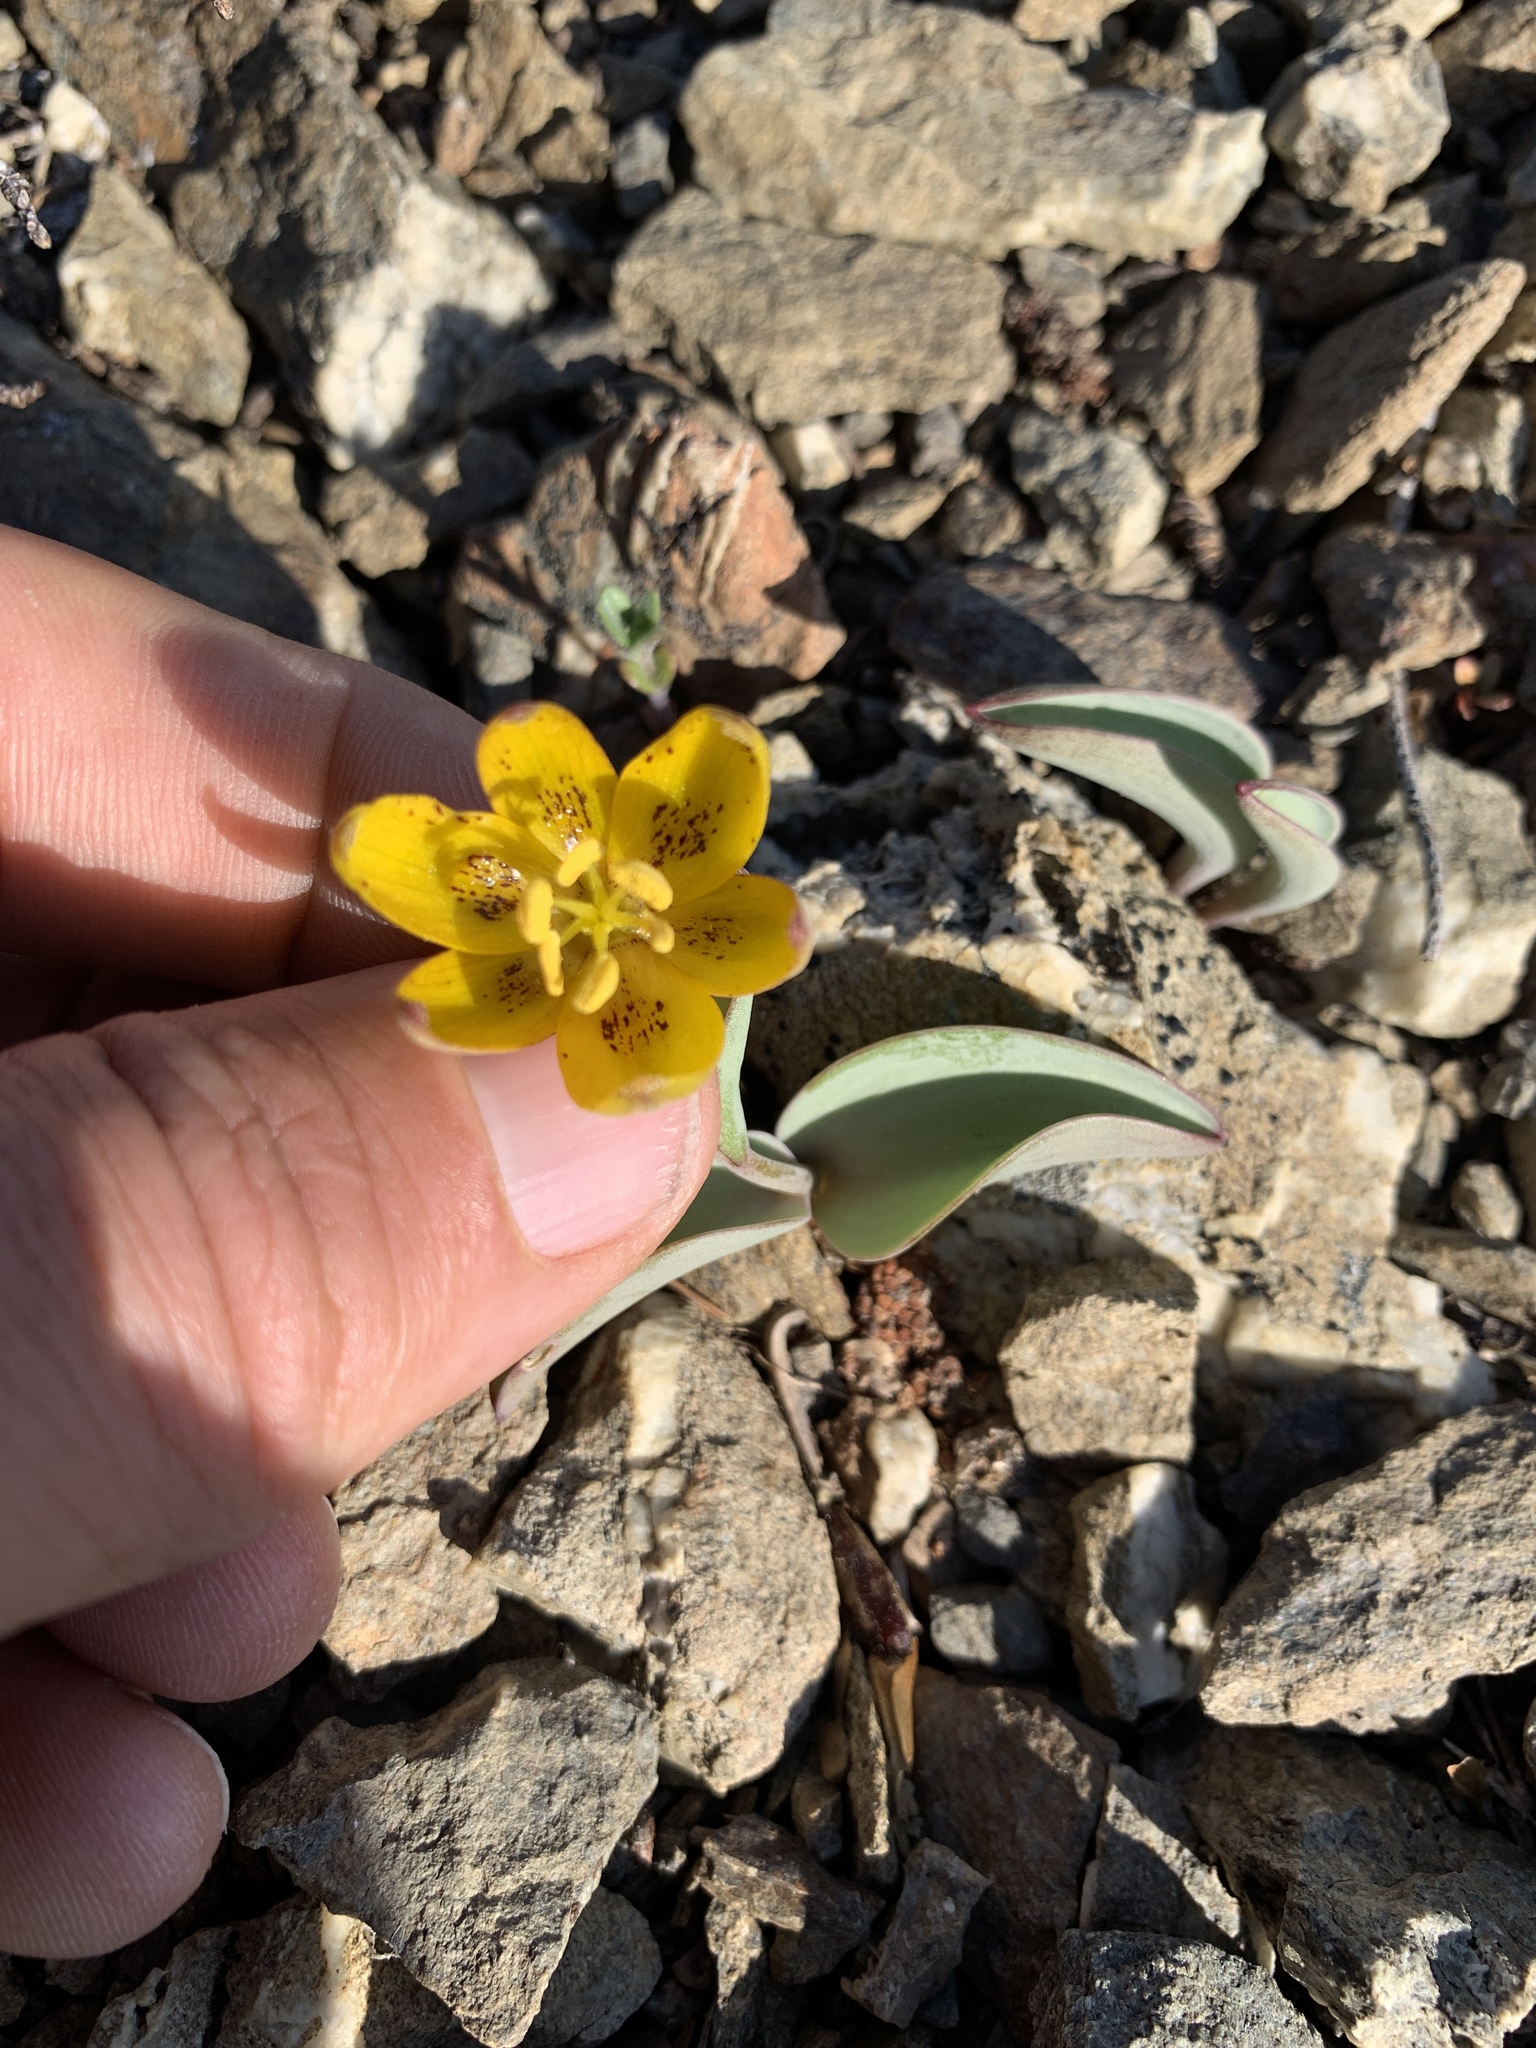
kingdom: Plantae
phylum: Tracheophyta
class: Liliopsida
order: Liliales
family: Liliaceae
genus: Fritillaria
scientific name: Fritillaria glauca
